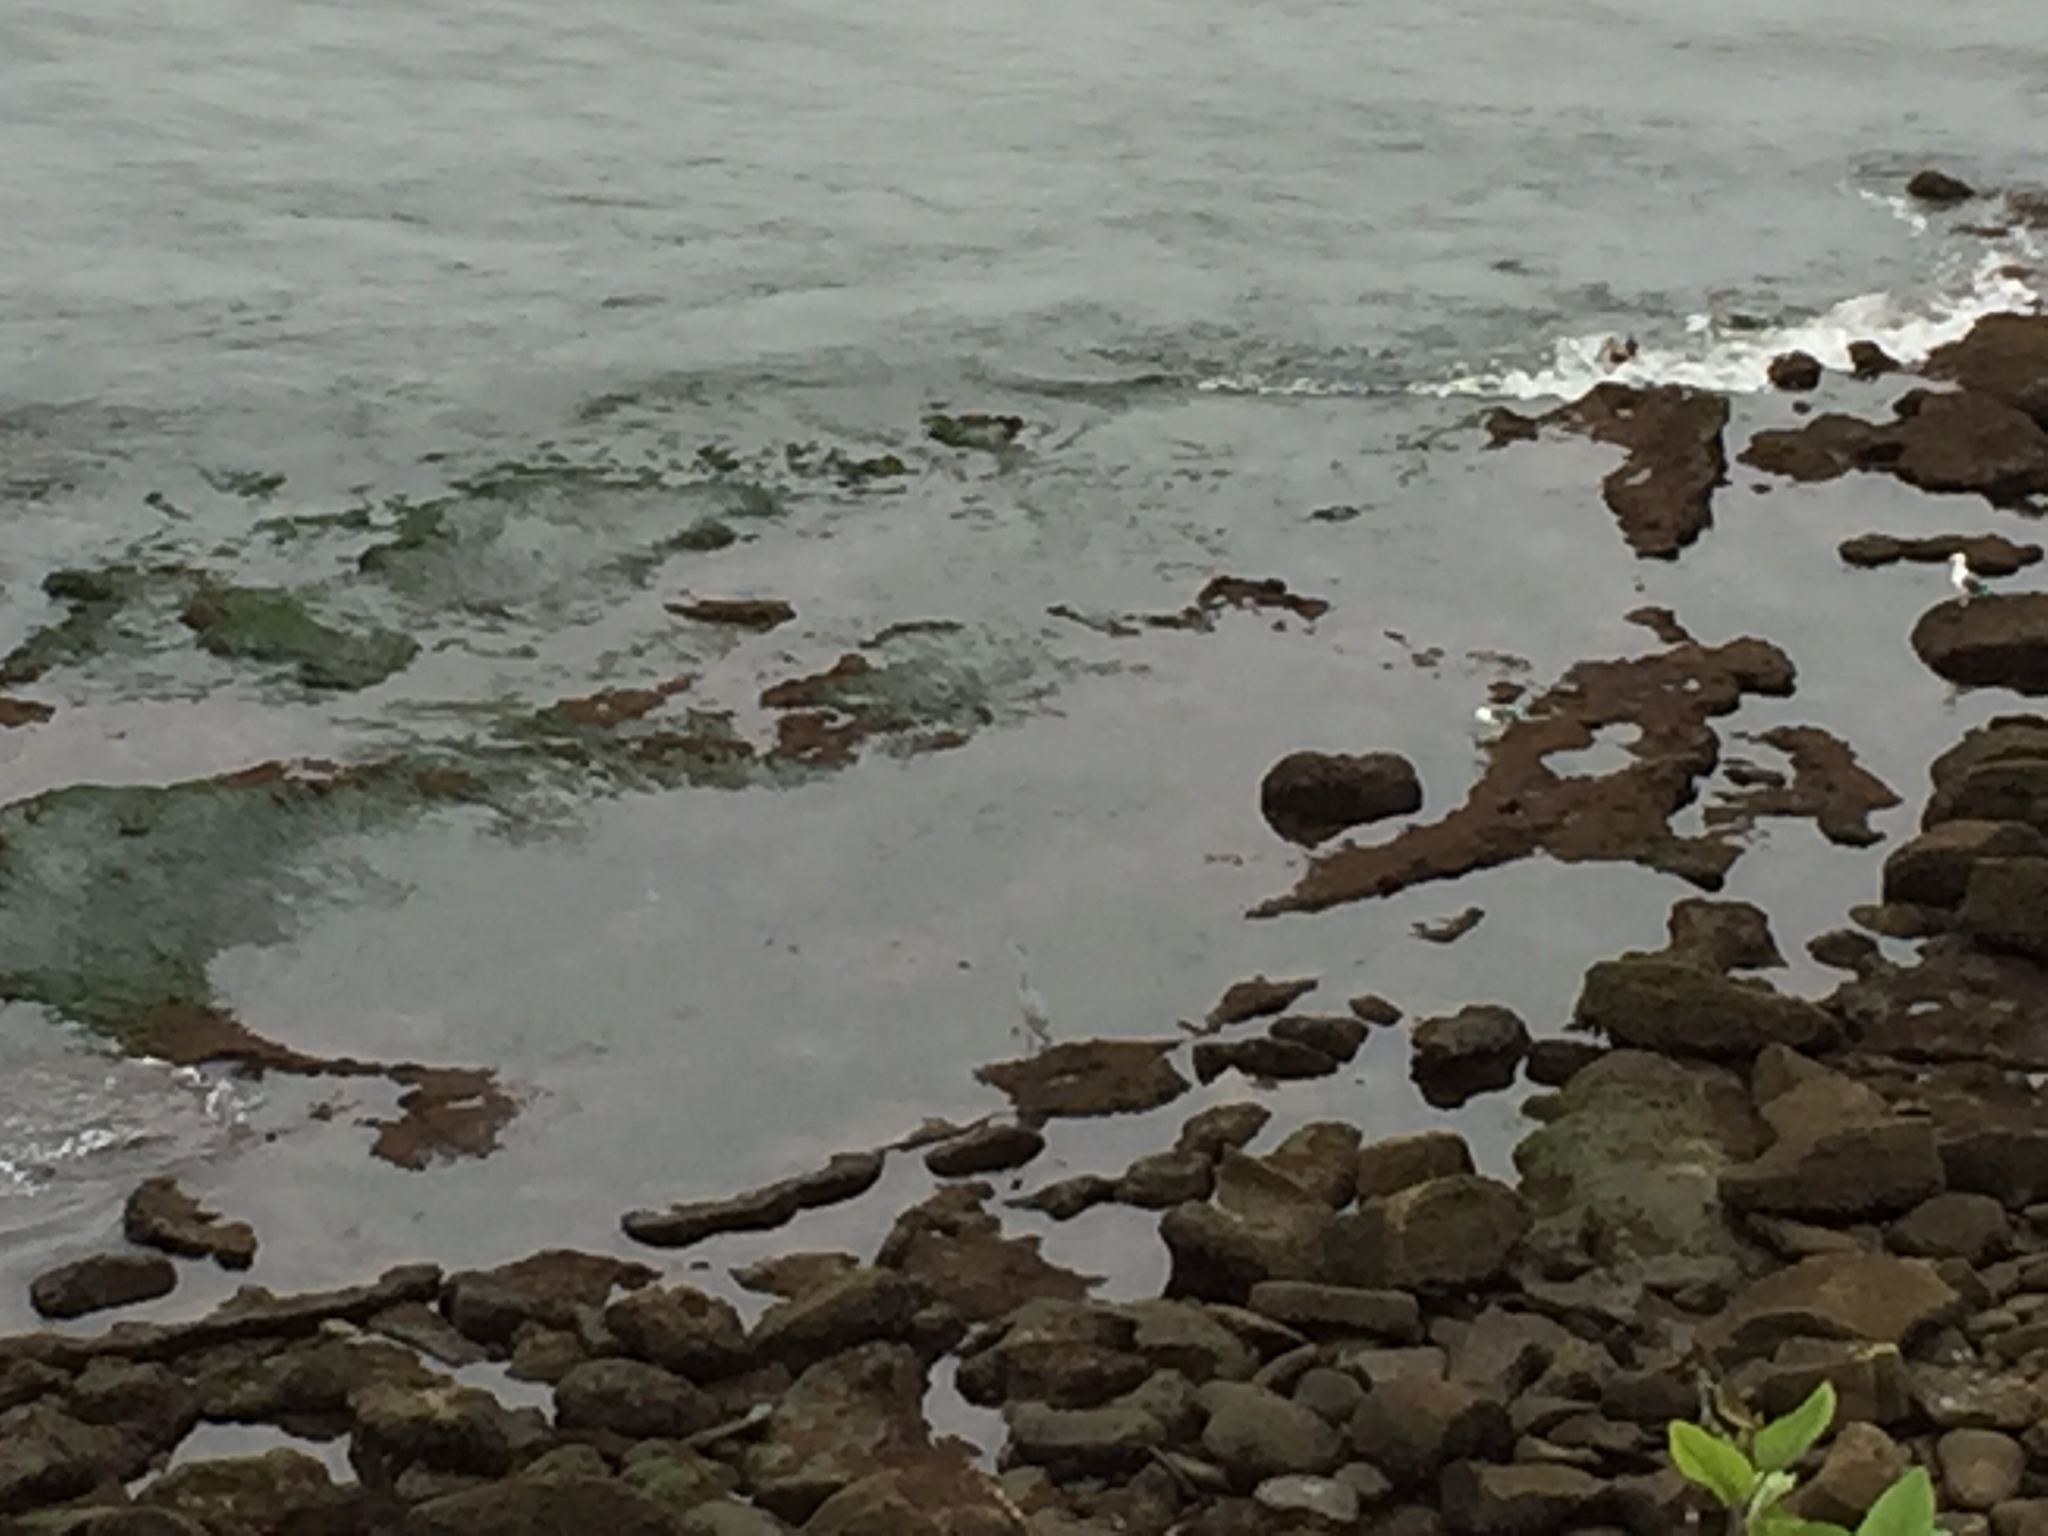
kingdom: Animalia
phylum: Chordata
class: Aves
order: Pelecaniformes
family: Ardeidae
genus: Ardea
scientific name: Ardea herodias
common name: Great blue heron
